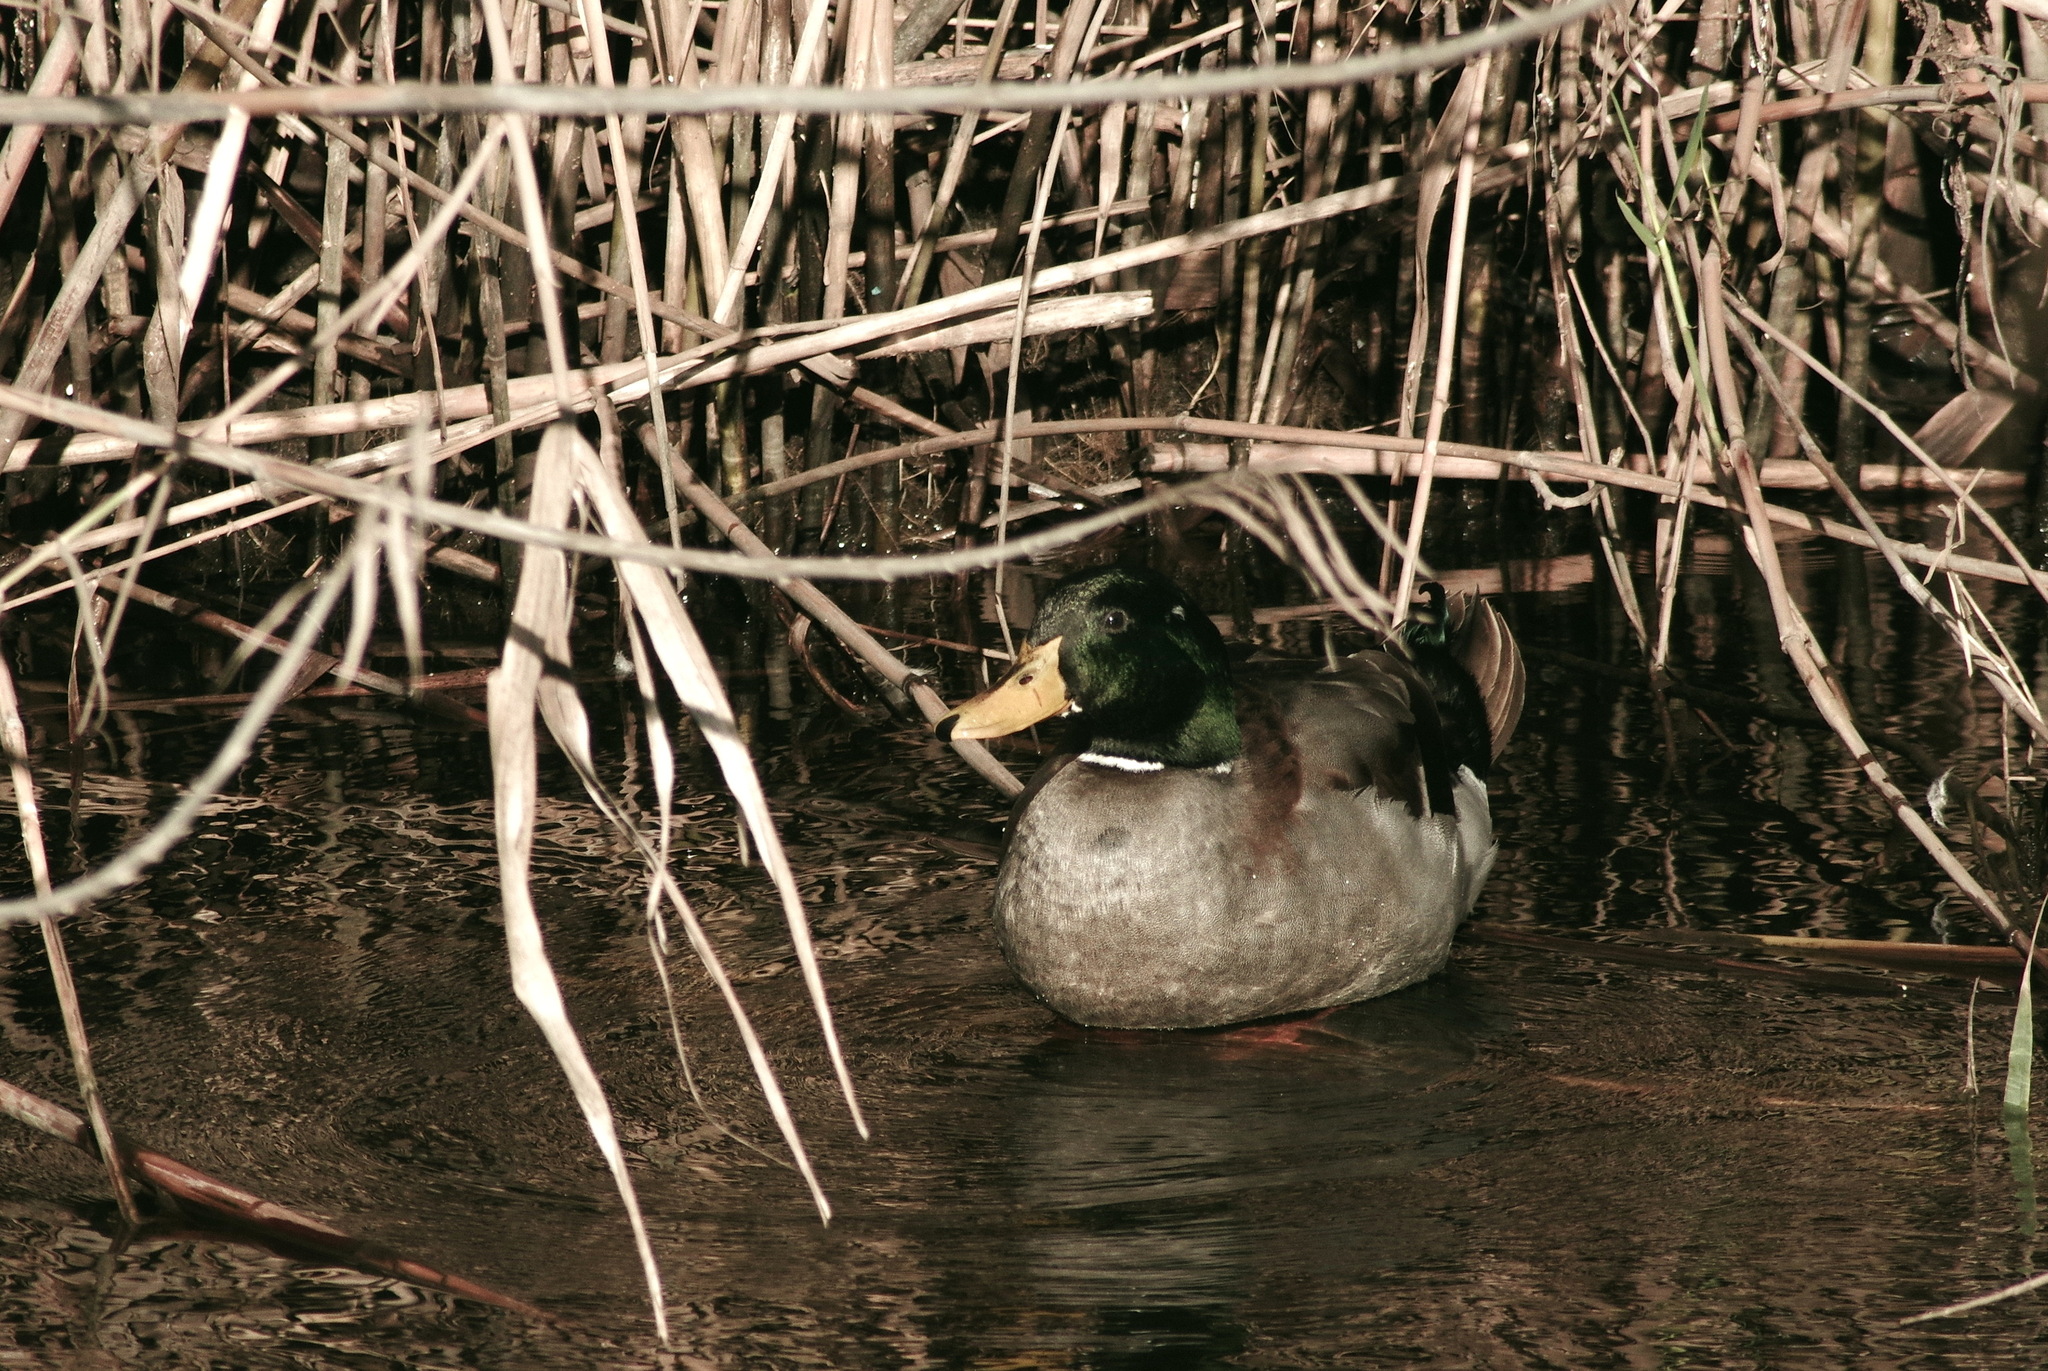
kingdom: Animalia
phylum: Chordata
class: Aves
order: Anseriformes
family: Anatidae
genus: Anas
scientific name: Anas platyrhynchos
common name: Mallard
